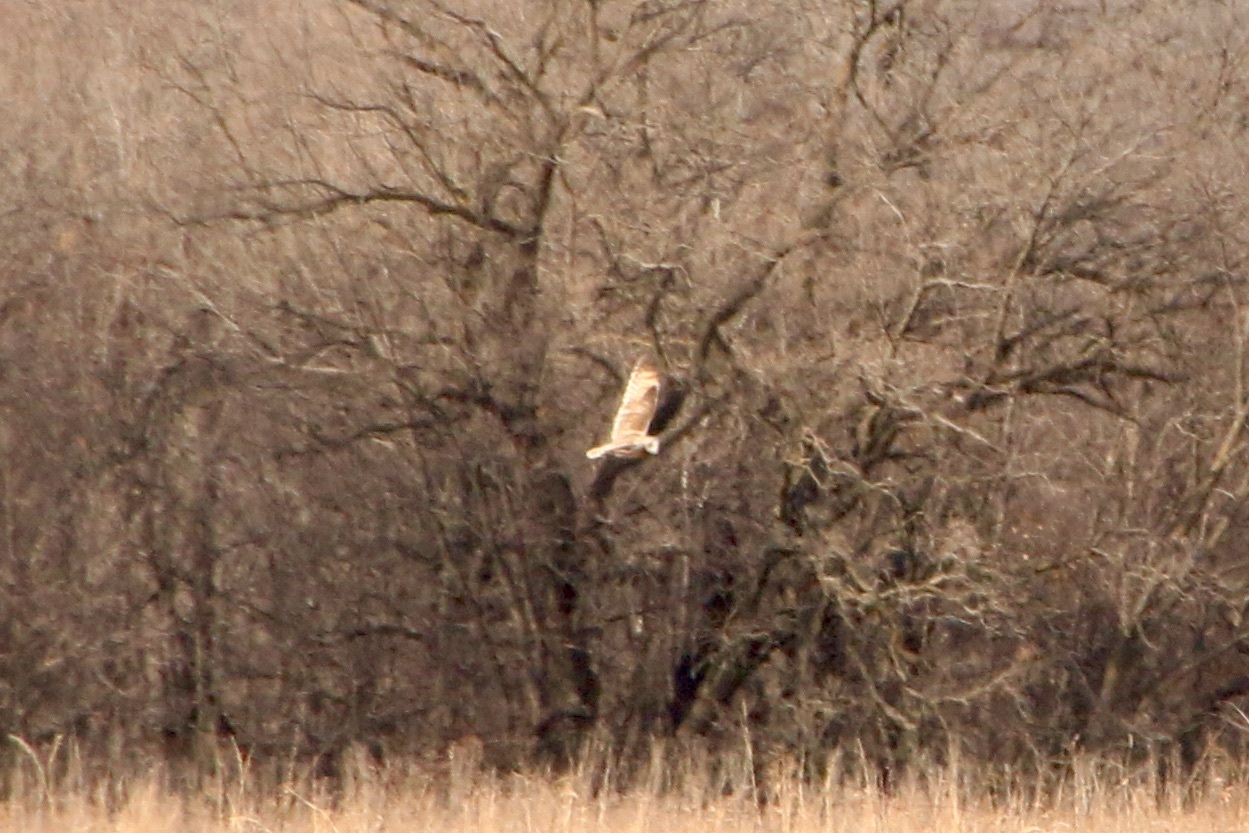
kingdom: Animalia
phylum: Chordata
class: Aves
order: Strigiformes
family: Strigidae
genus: Asio
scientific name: Asio flammeus
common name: Short-eared owl
